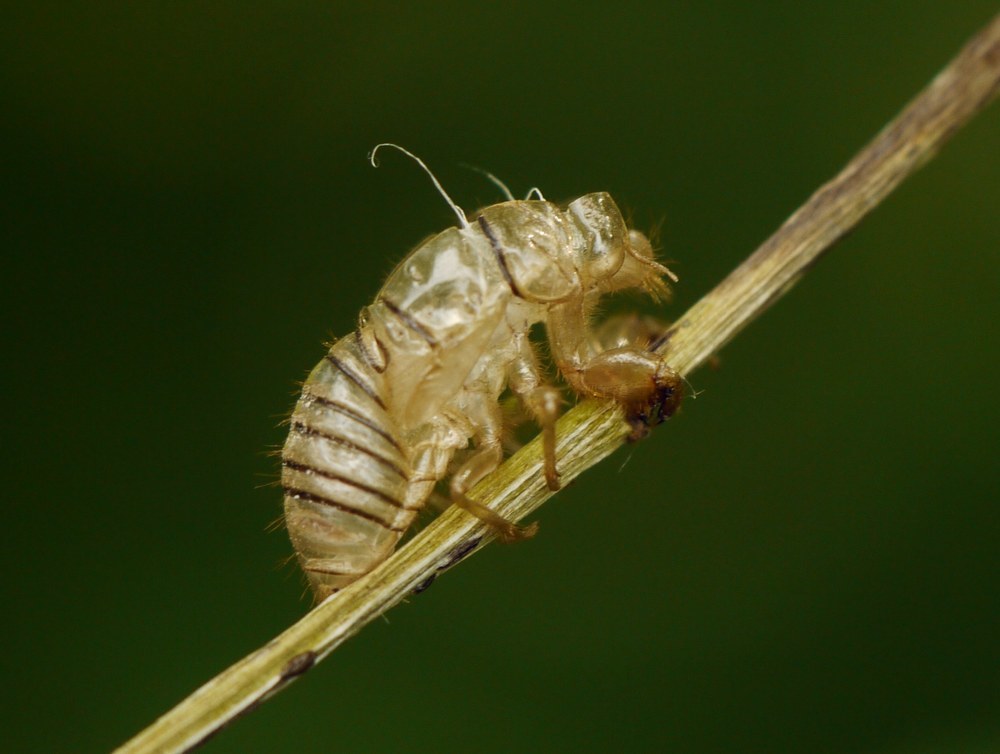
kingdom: Animalia
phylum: Arthropoda
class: Insecta
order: Hemiptera
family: Cicadidae
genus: Oligoglena
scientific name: Oligoglena tibialis
